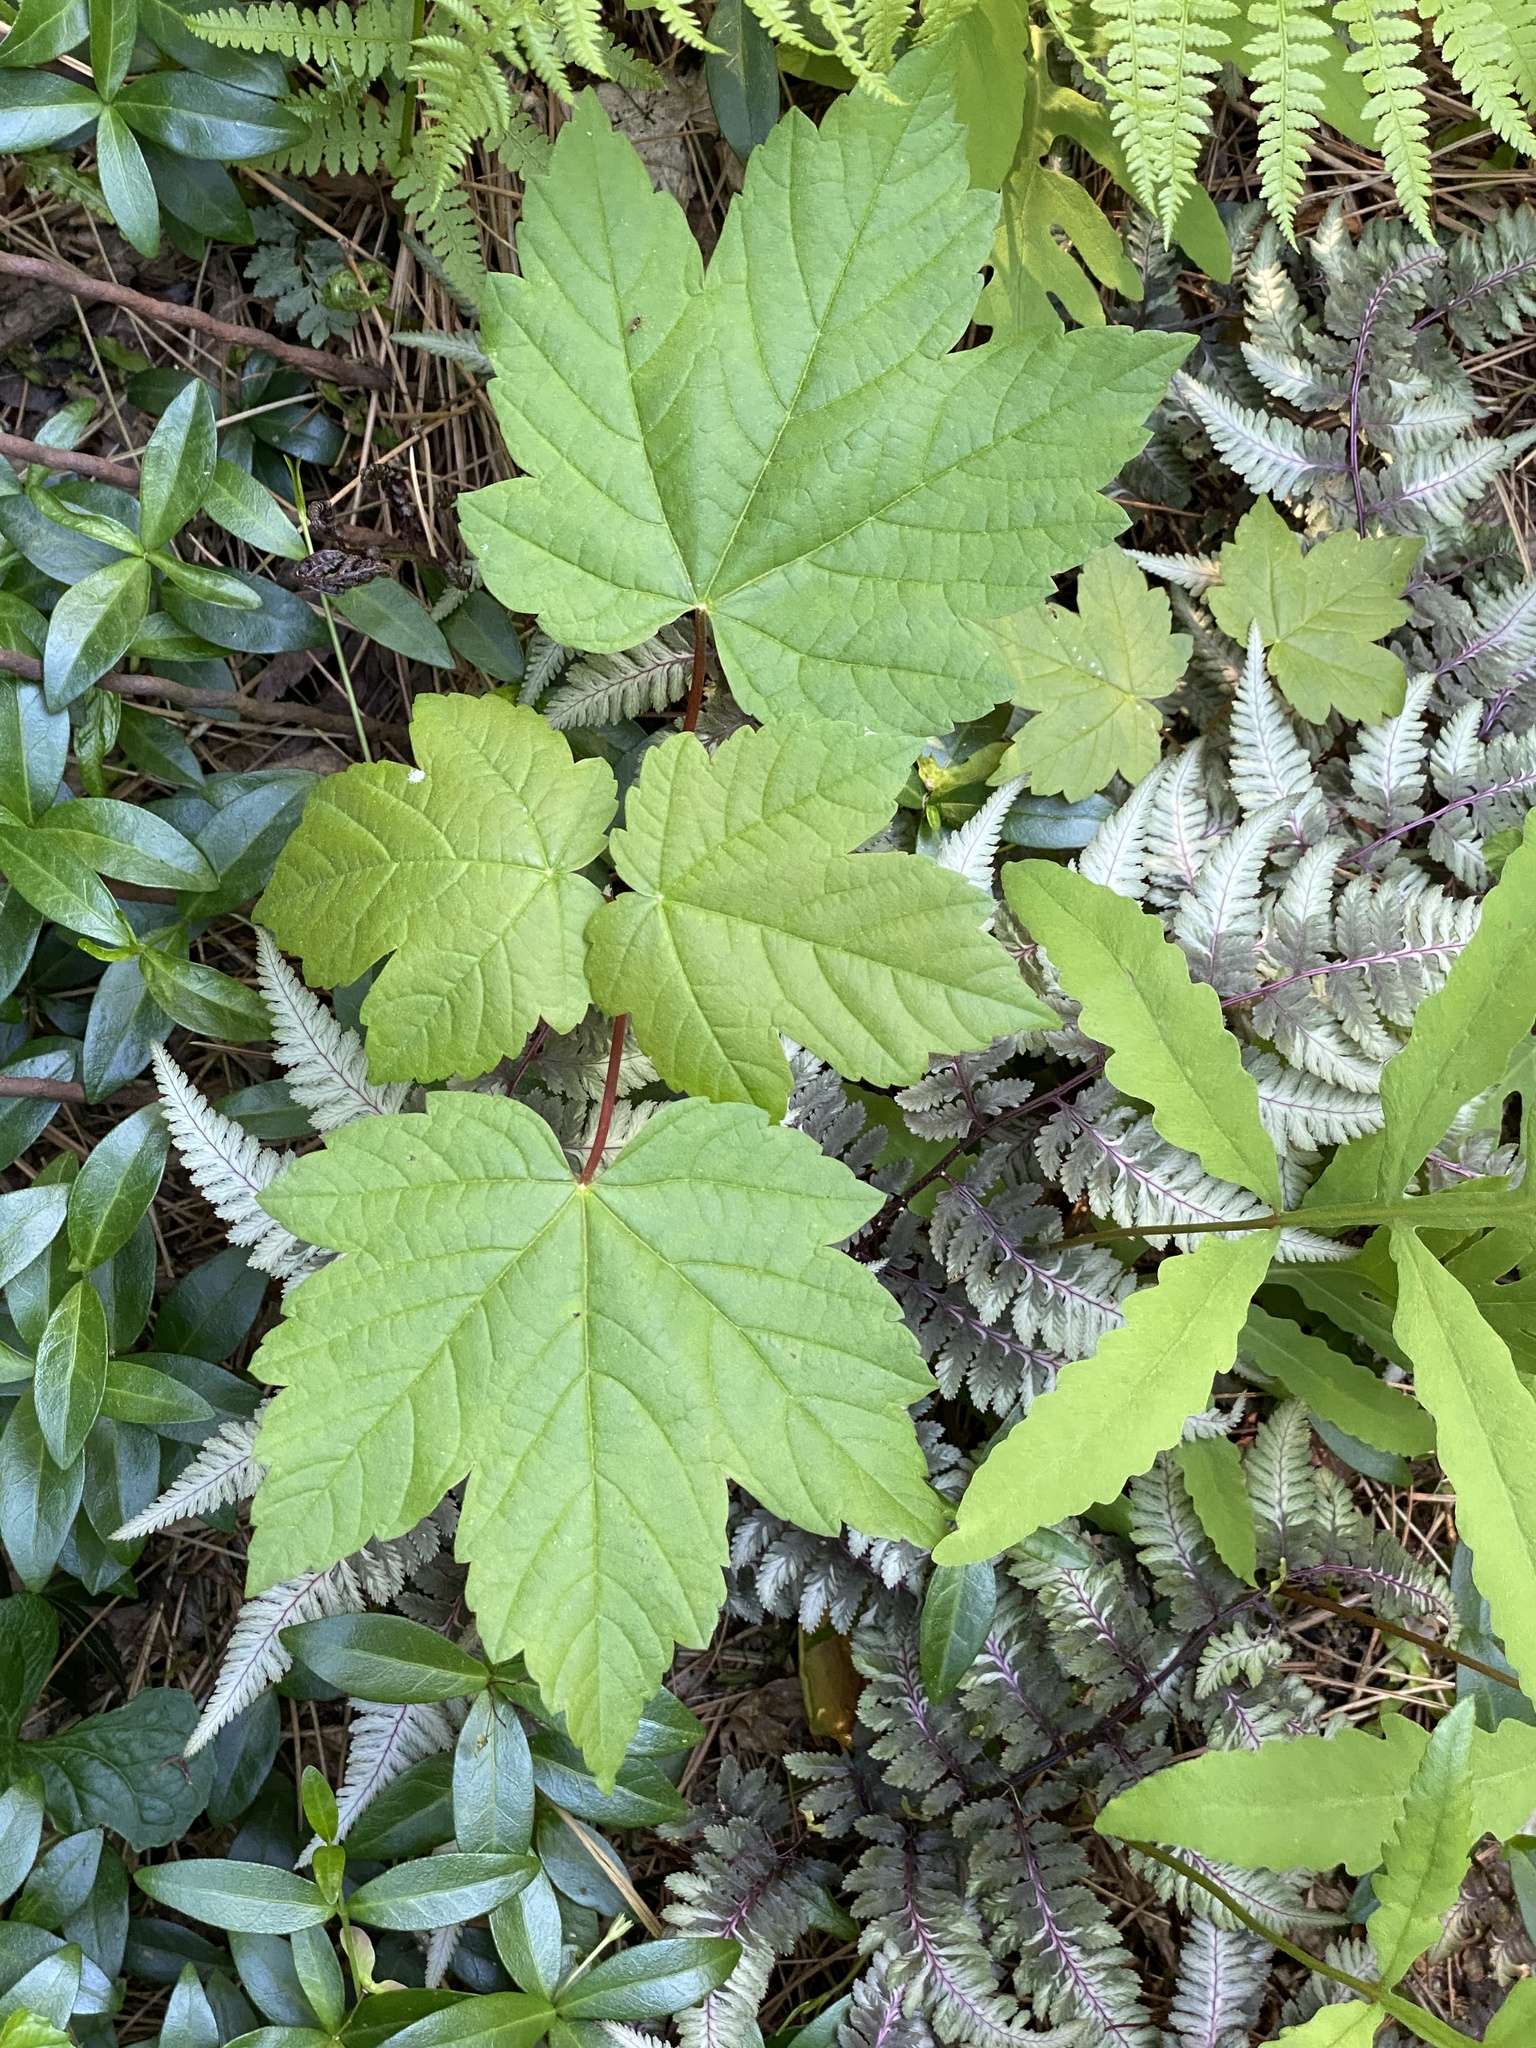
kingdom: Plantae
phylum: Tracheophyta
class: Magnoliopsida
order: Sapindales
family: Sapindaceae
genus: Acer
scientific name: Acer pseudoplatanus
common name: Sycamore
